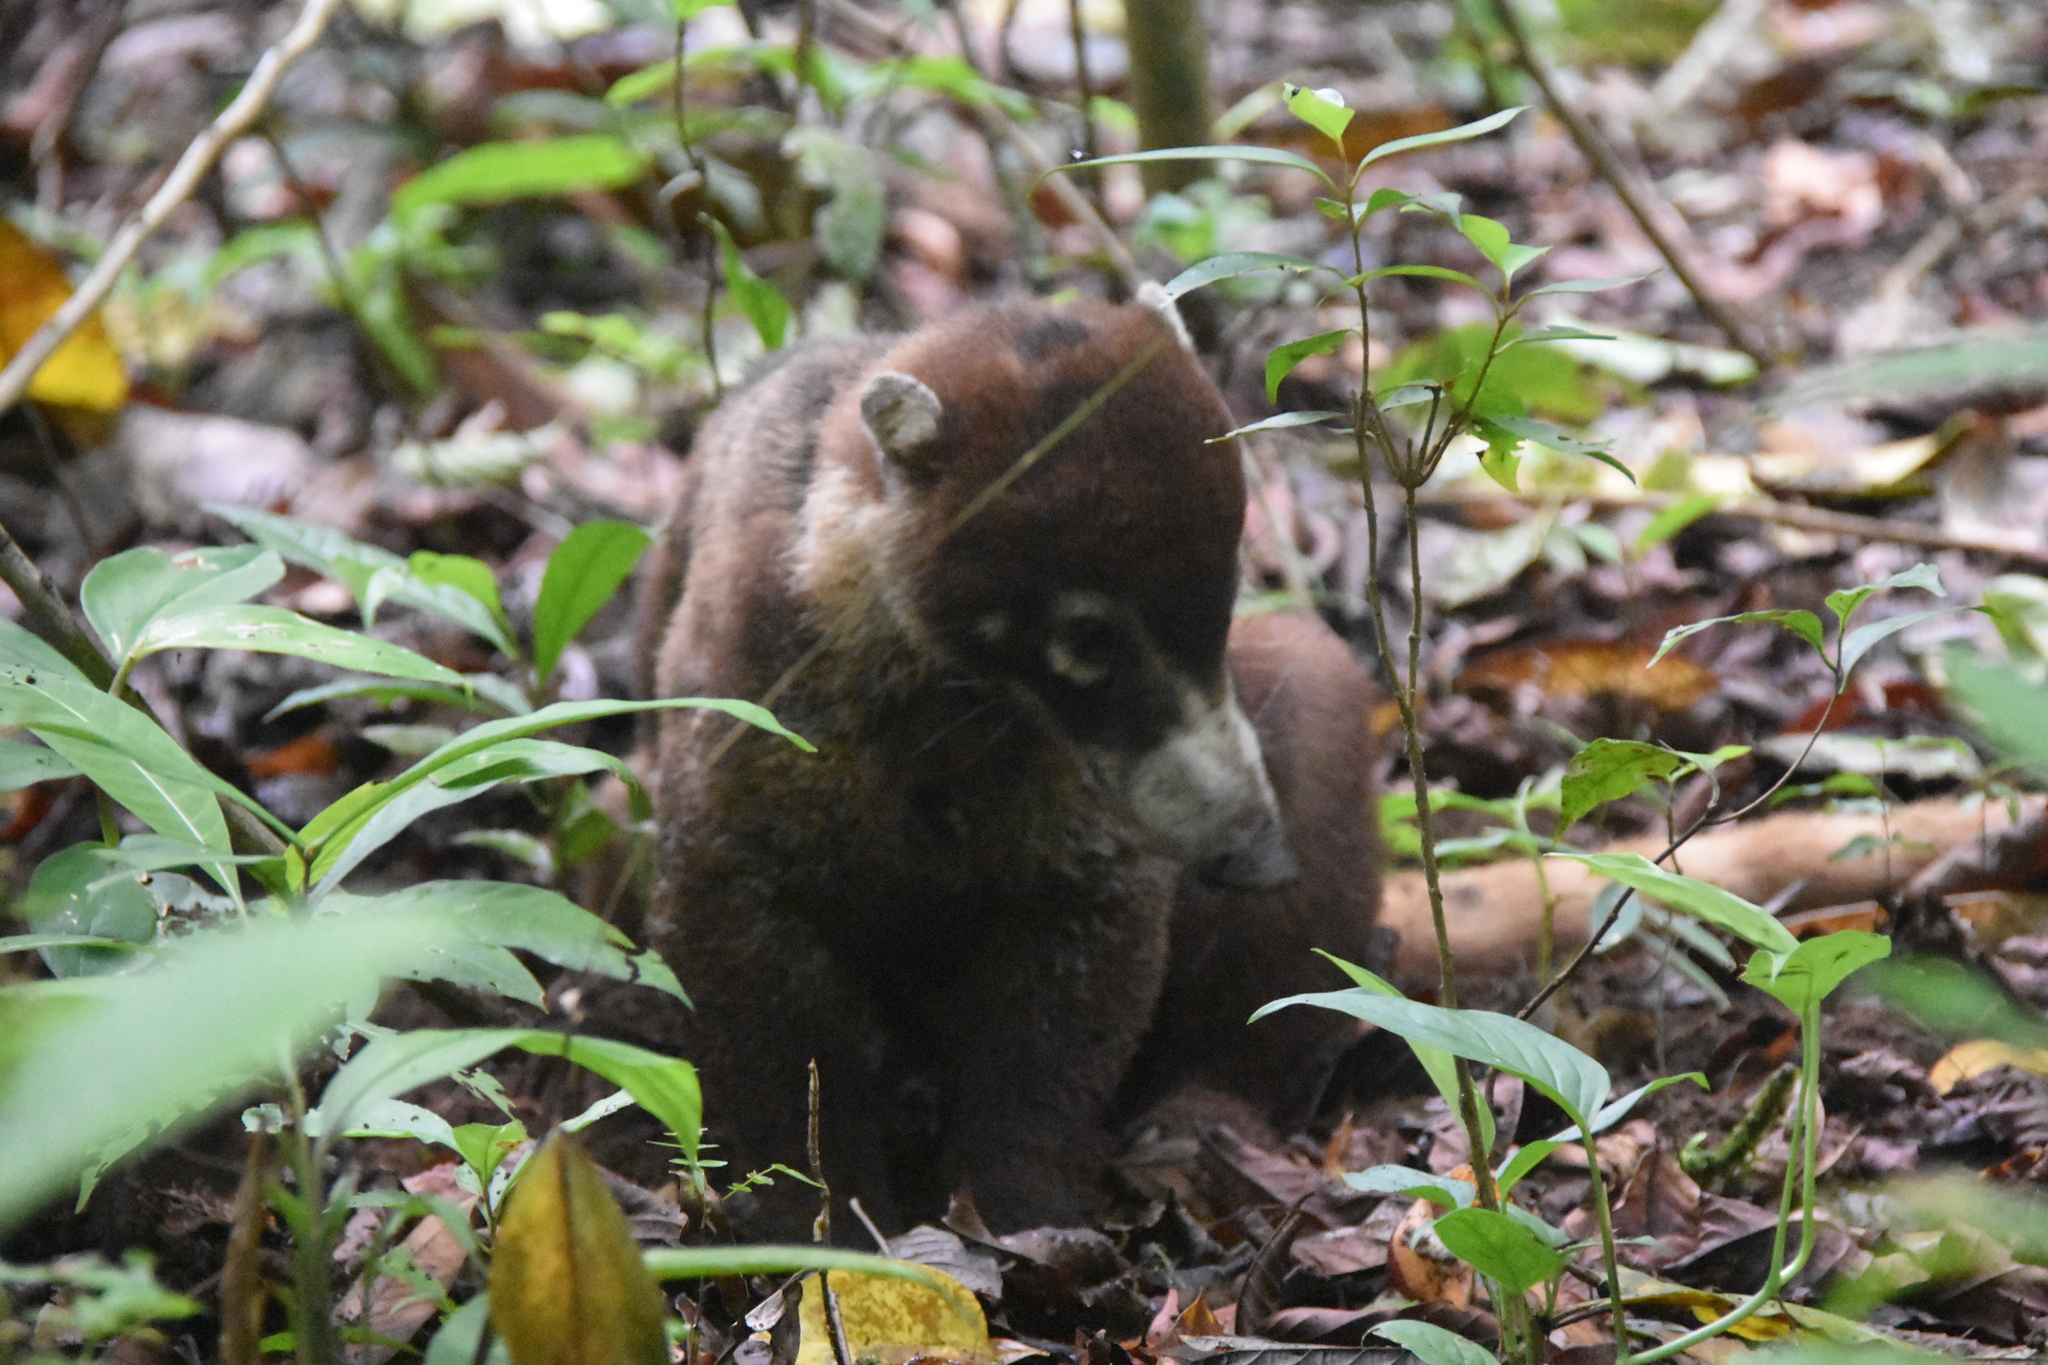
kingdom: Animalia
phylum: Chordata
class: Mammalia
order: Carnivora
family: Procyonidae
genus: Nasua
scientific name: Nasua narica
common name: White-nosed coati
